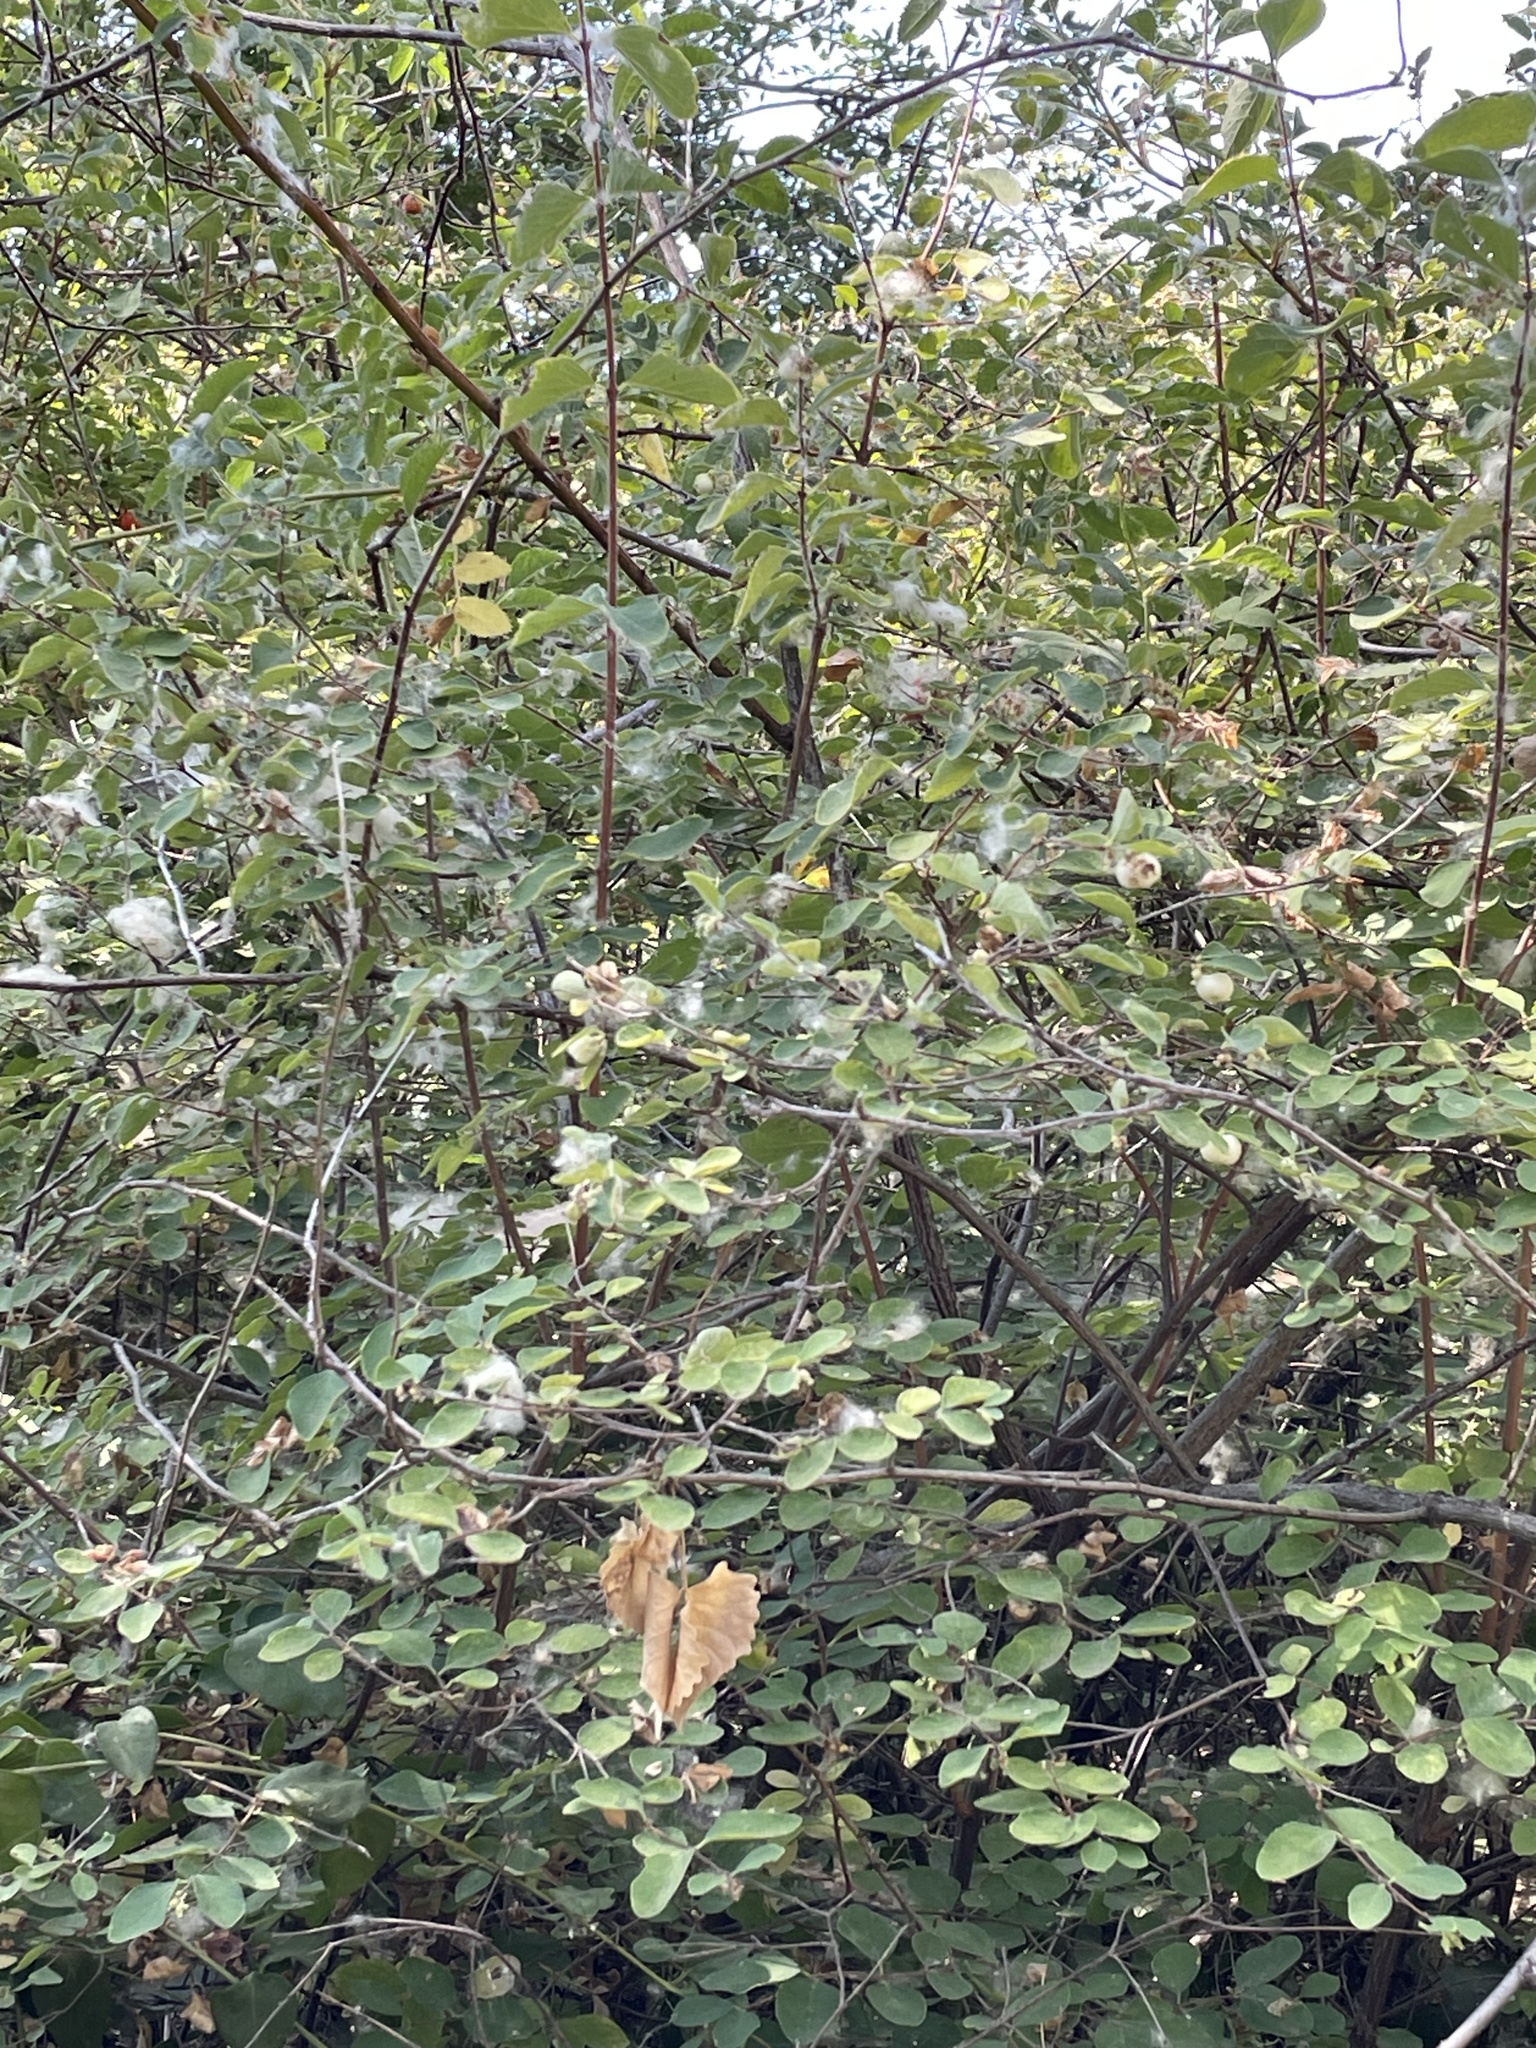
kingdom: Plantae
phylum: Tracheophyta
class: Magnoliopsida
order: Dipsacales
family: Caprifoliaceae
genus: Symphoricarpos
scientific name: Symphoricarpos albus
